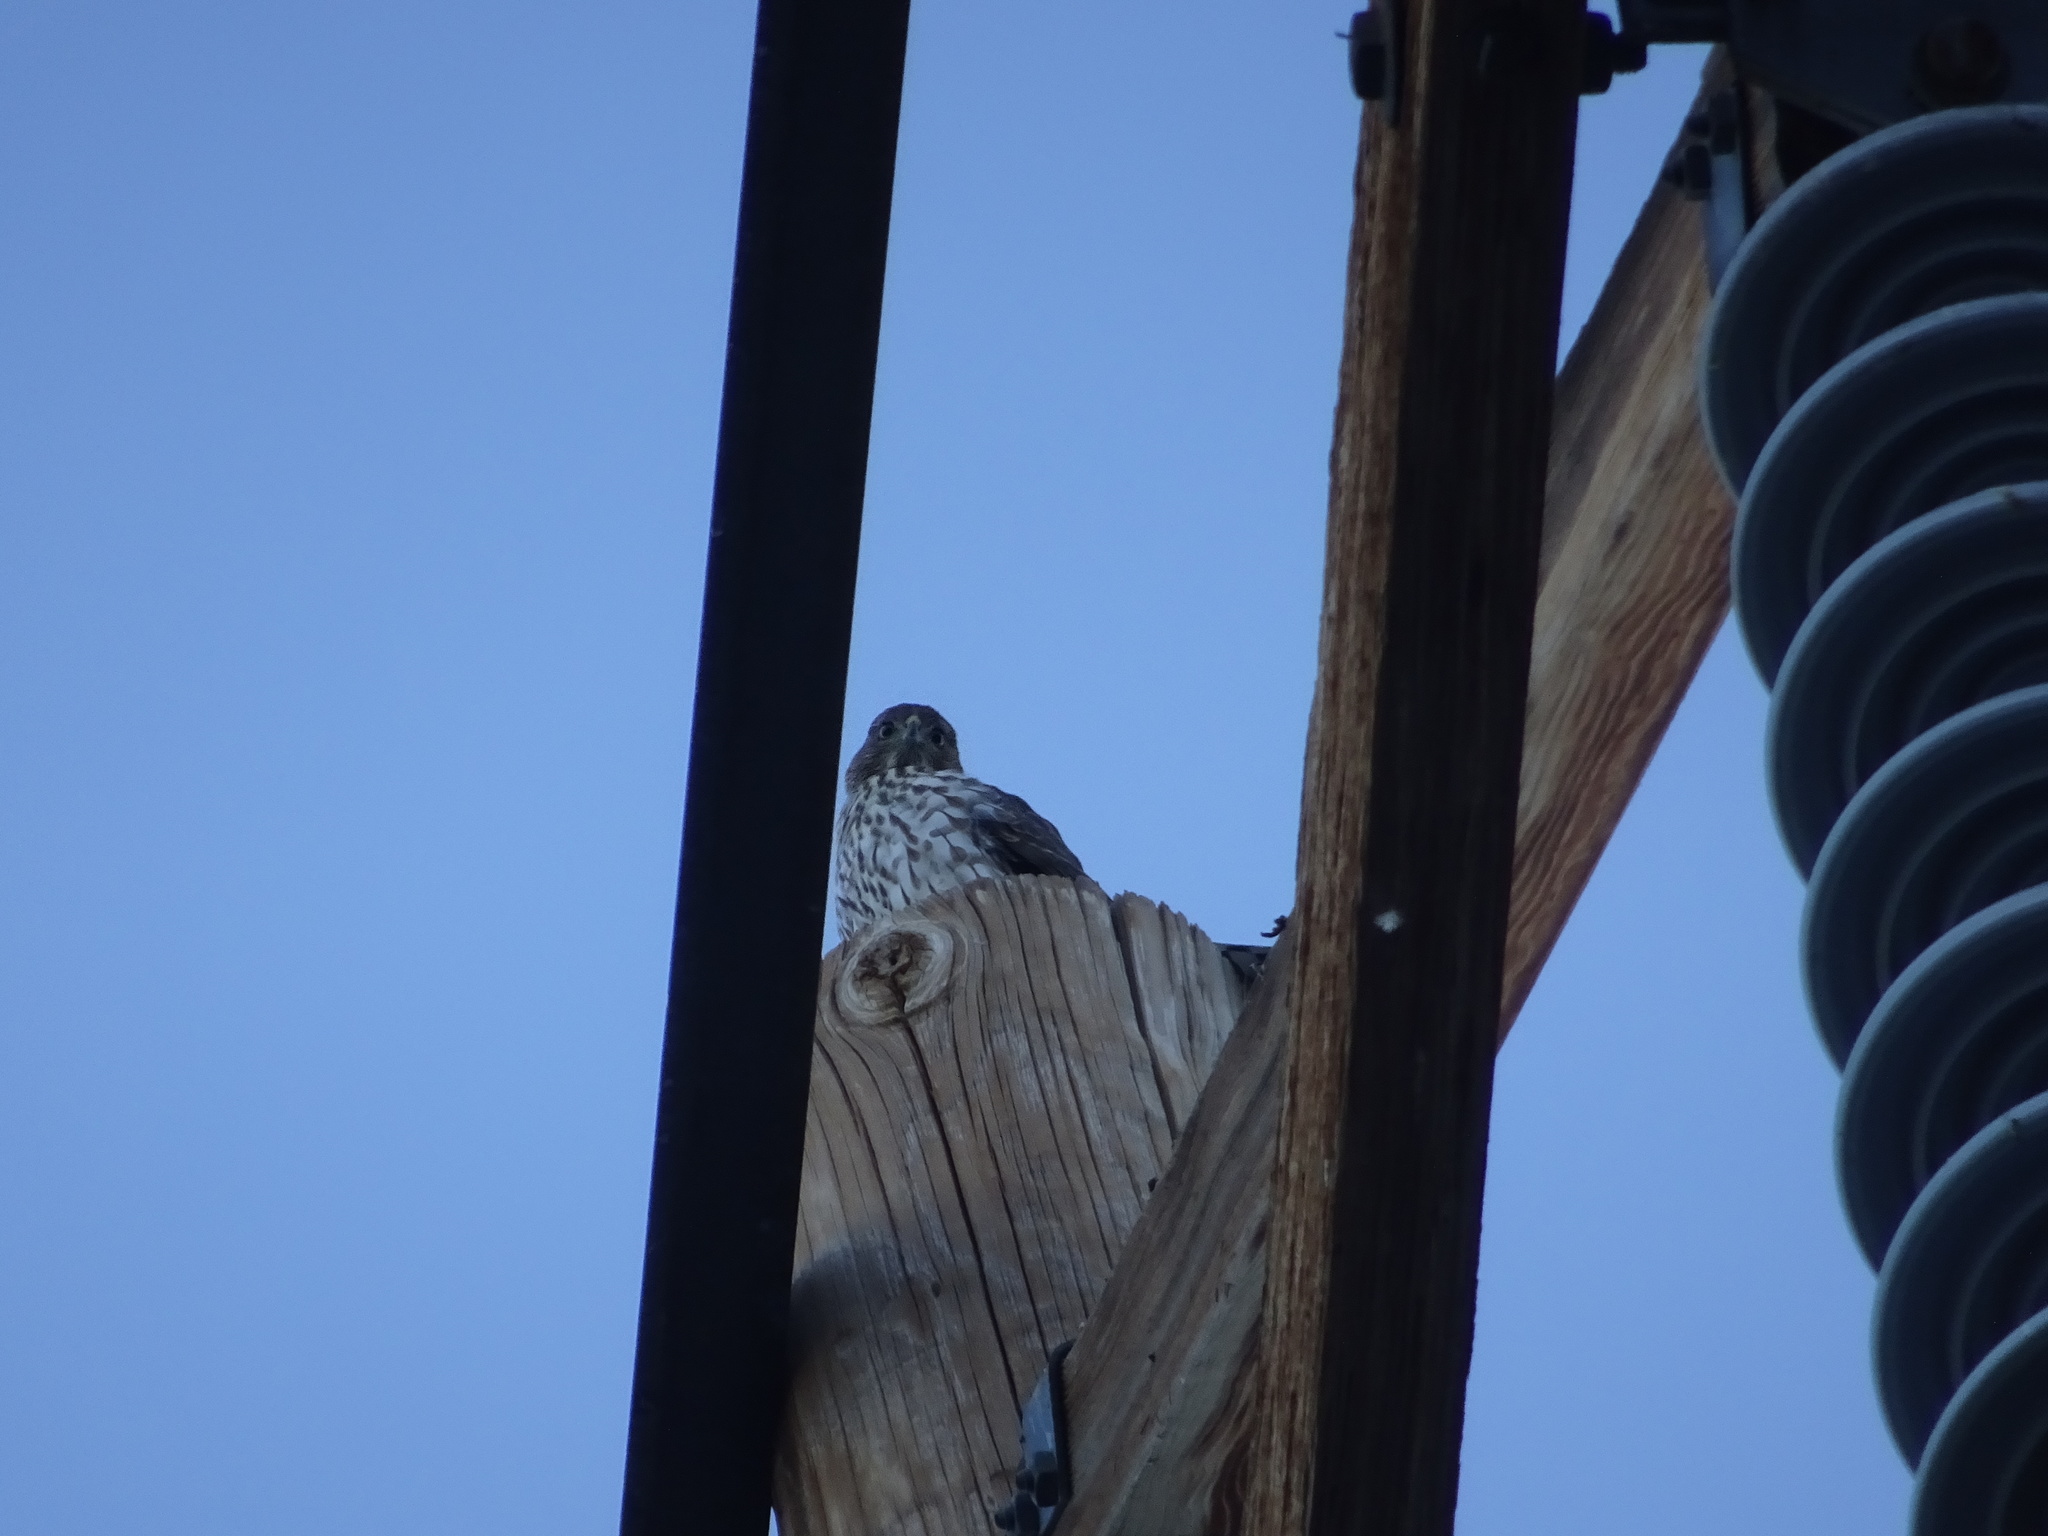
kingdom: Animalia
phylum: Chordata
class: Aves
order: Accipitriformes
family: Accipitridae
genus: Accipiter
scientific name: Accipiter cooperii
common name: Cooper's hawk
